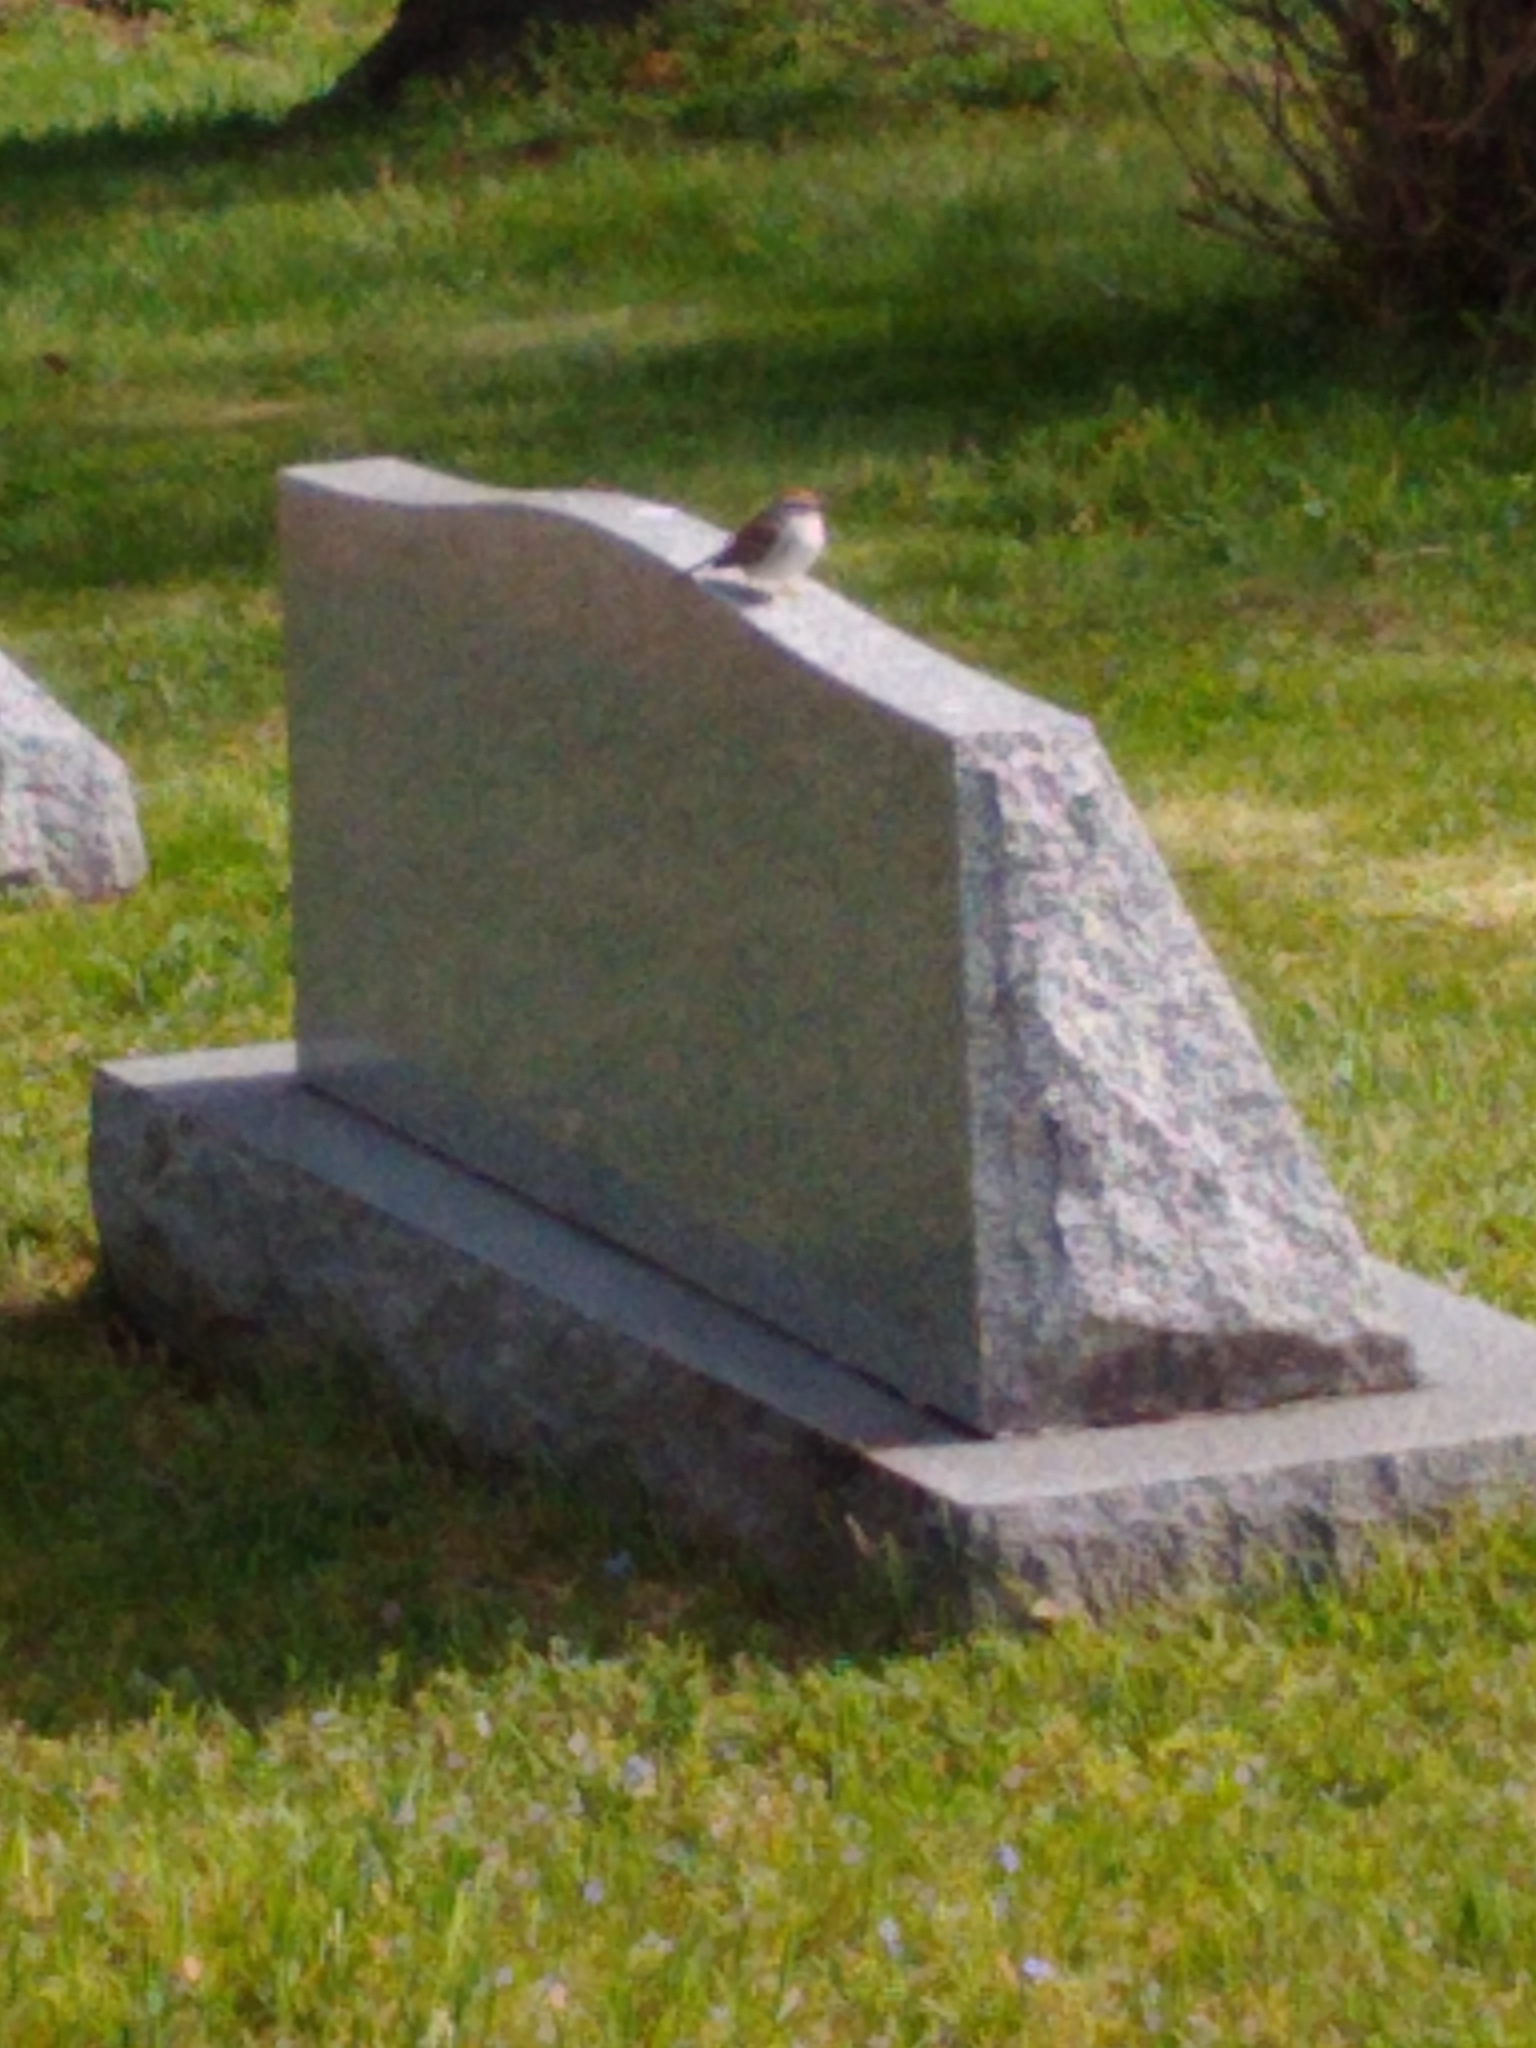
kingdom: Animalia
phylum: Chordata
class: Aves
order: Passeriformes
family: Passerellidae
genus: Spizella
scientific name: Spizella passerina
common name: Chipping sparrow
